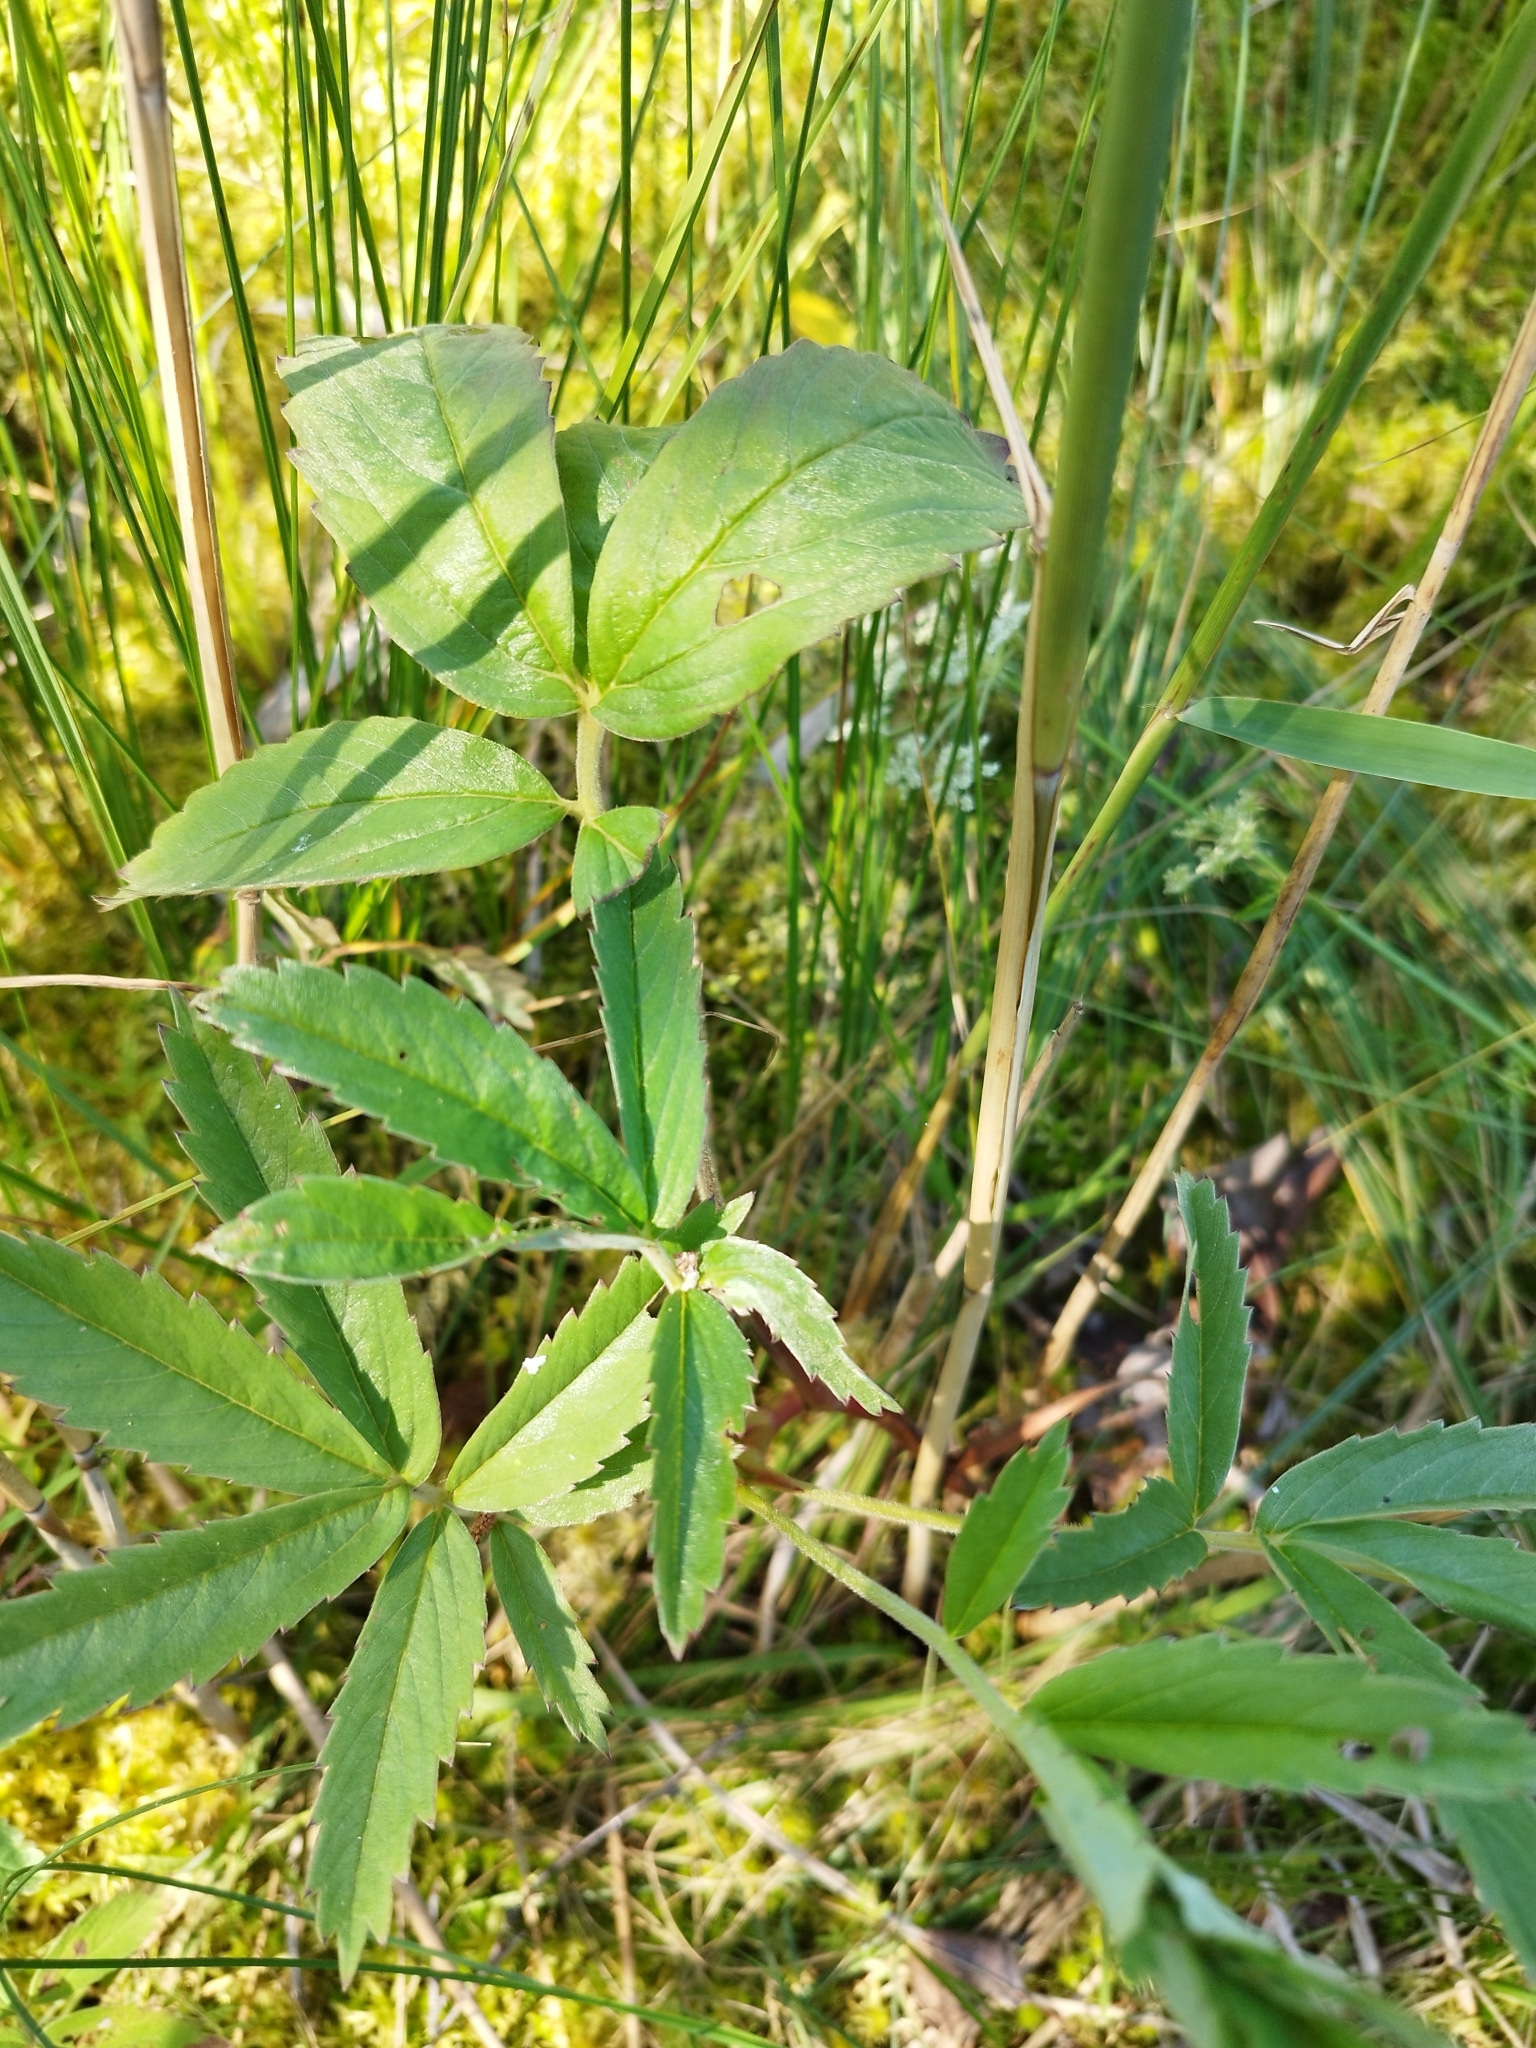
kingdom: Plantae
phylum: Tracheophyta
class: Magnoliopsida
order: Rosales
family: Rosaceae
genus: Comarum
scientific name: Comarum palustre
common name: Marsh cinquefoil
